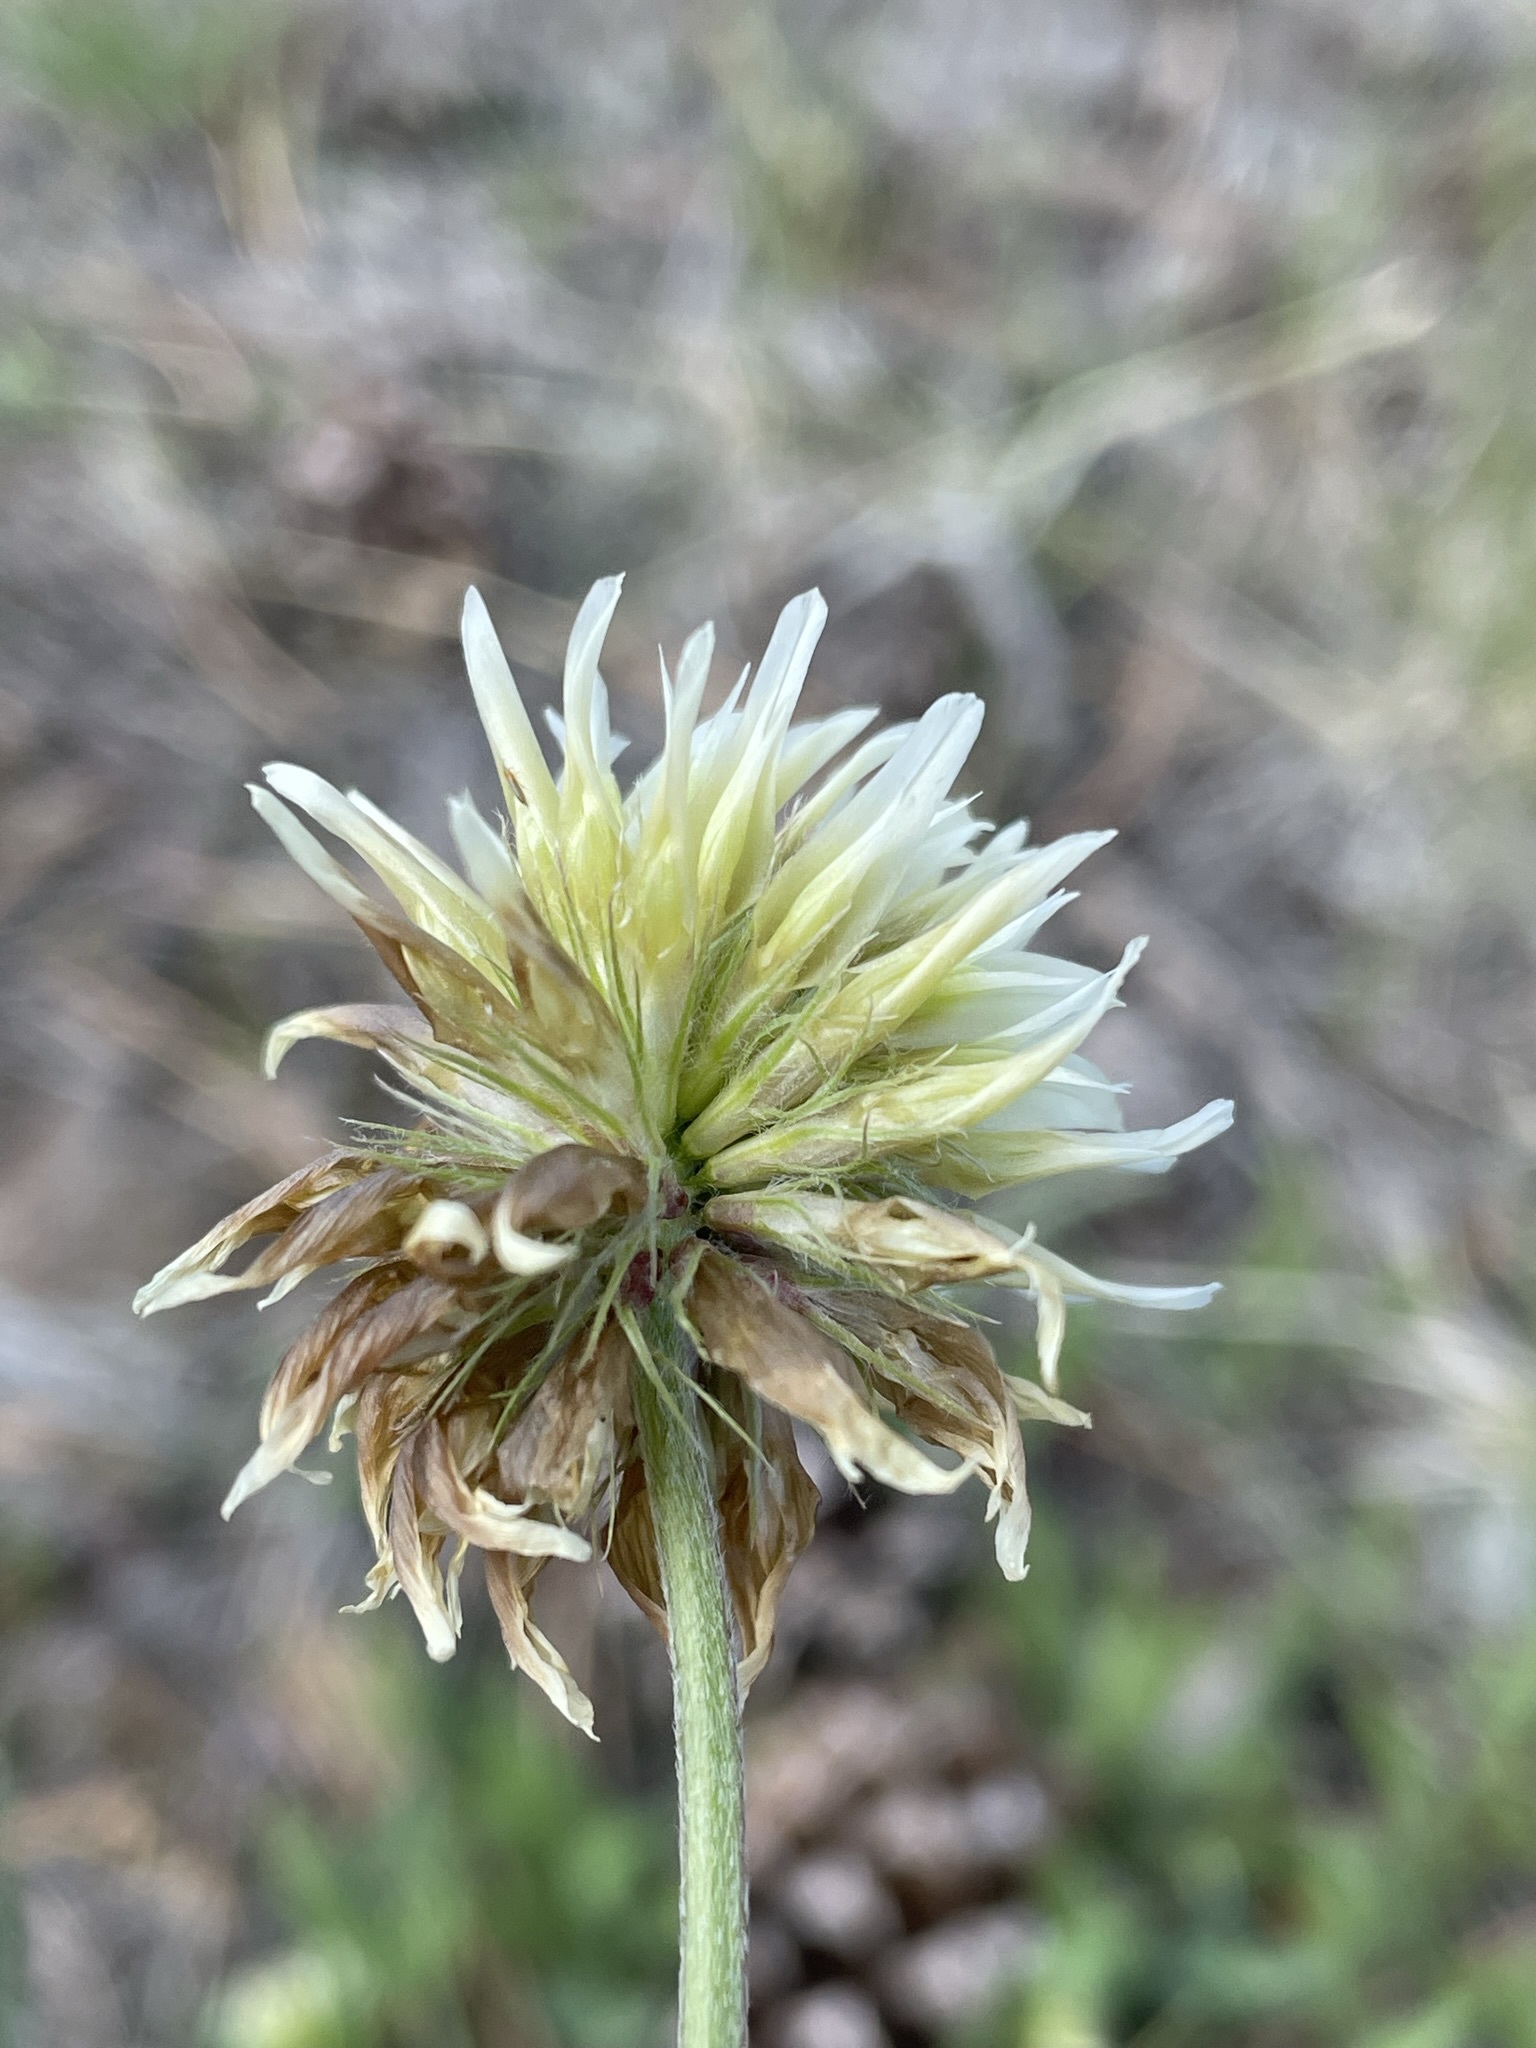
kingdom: Plantae
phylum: Tracheophyta
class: Magnoliopsida
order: Fabales
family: Fabaceae
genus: Trifolium
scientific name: Trifolium longipes
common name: Long-stalk clover
